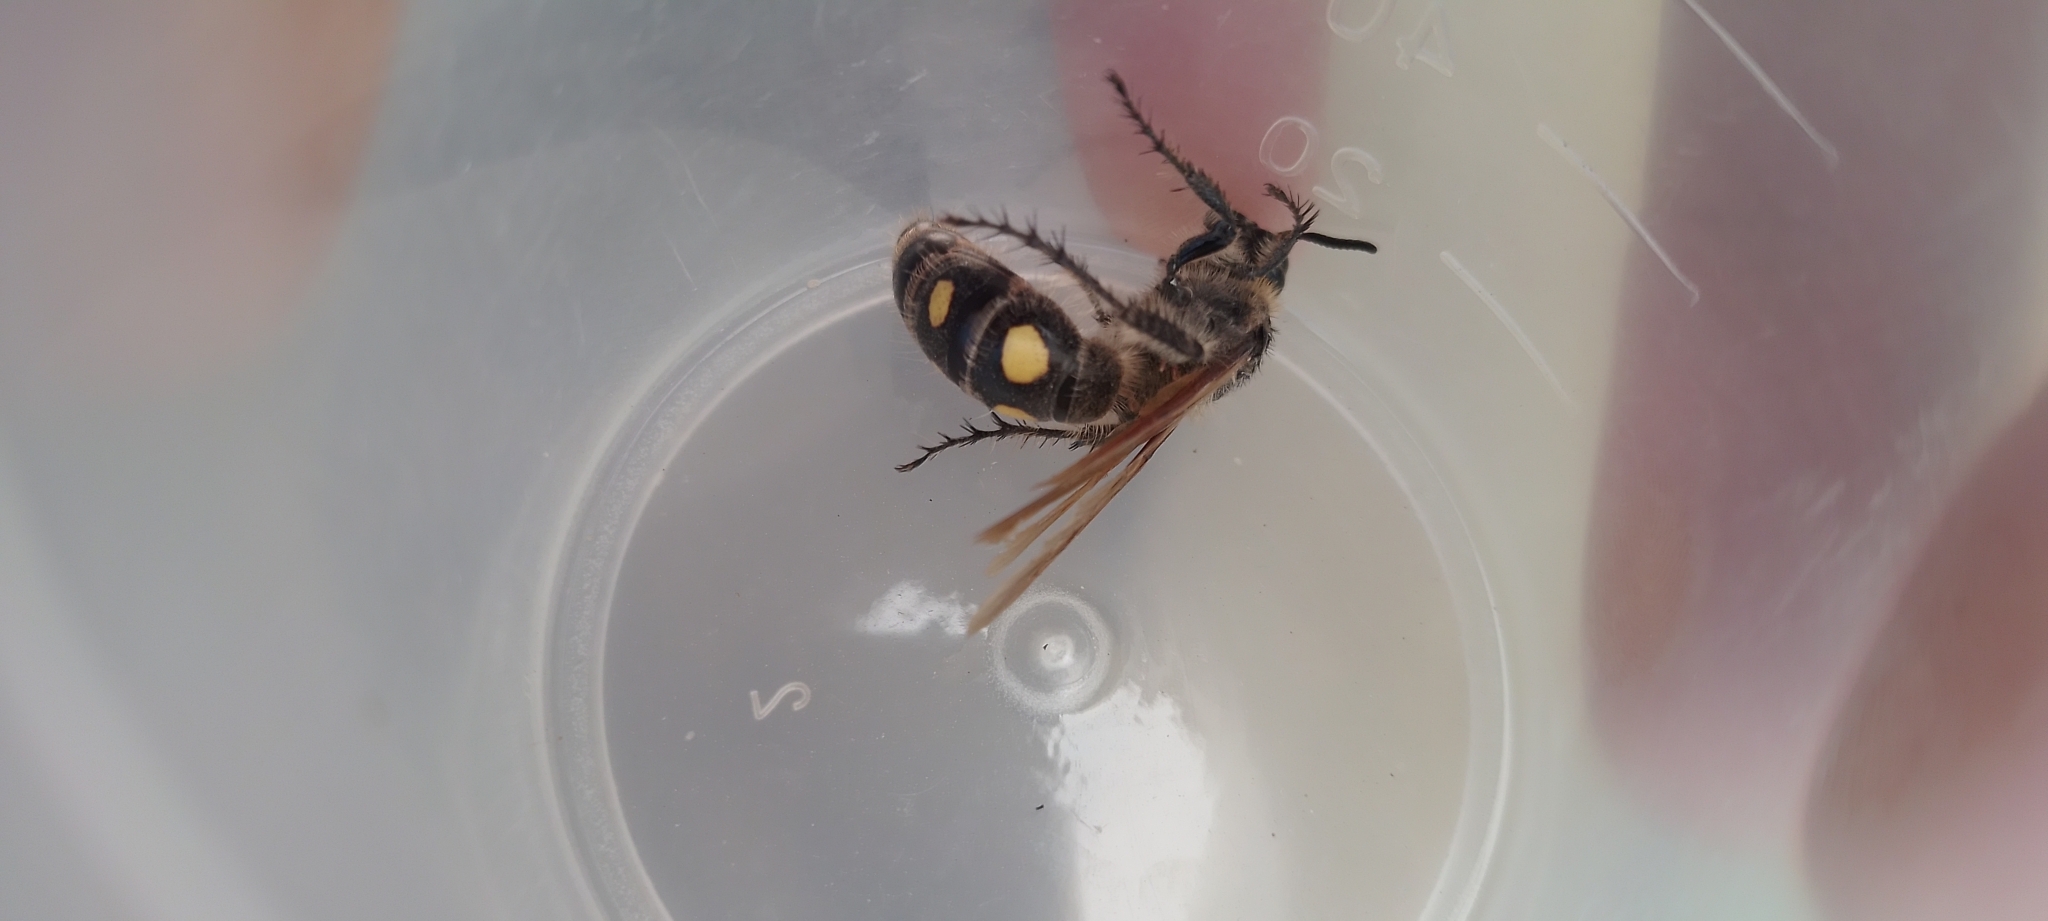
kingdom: Animalia
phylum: Arthropoda
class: Insecta
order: Hymenoptera
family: Scoliidae
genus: Pygodasis
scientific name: Pygodasis
